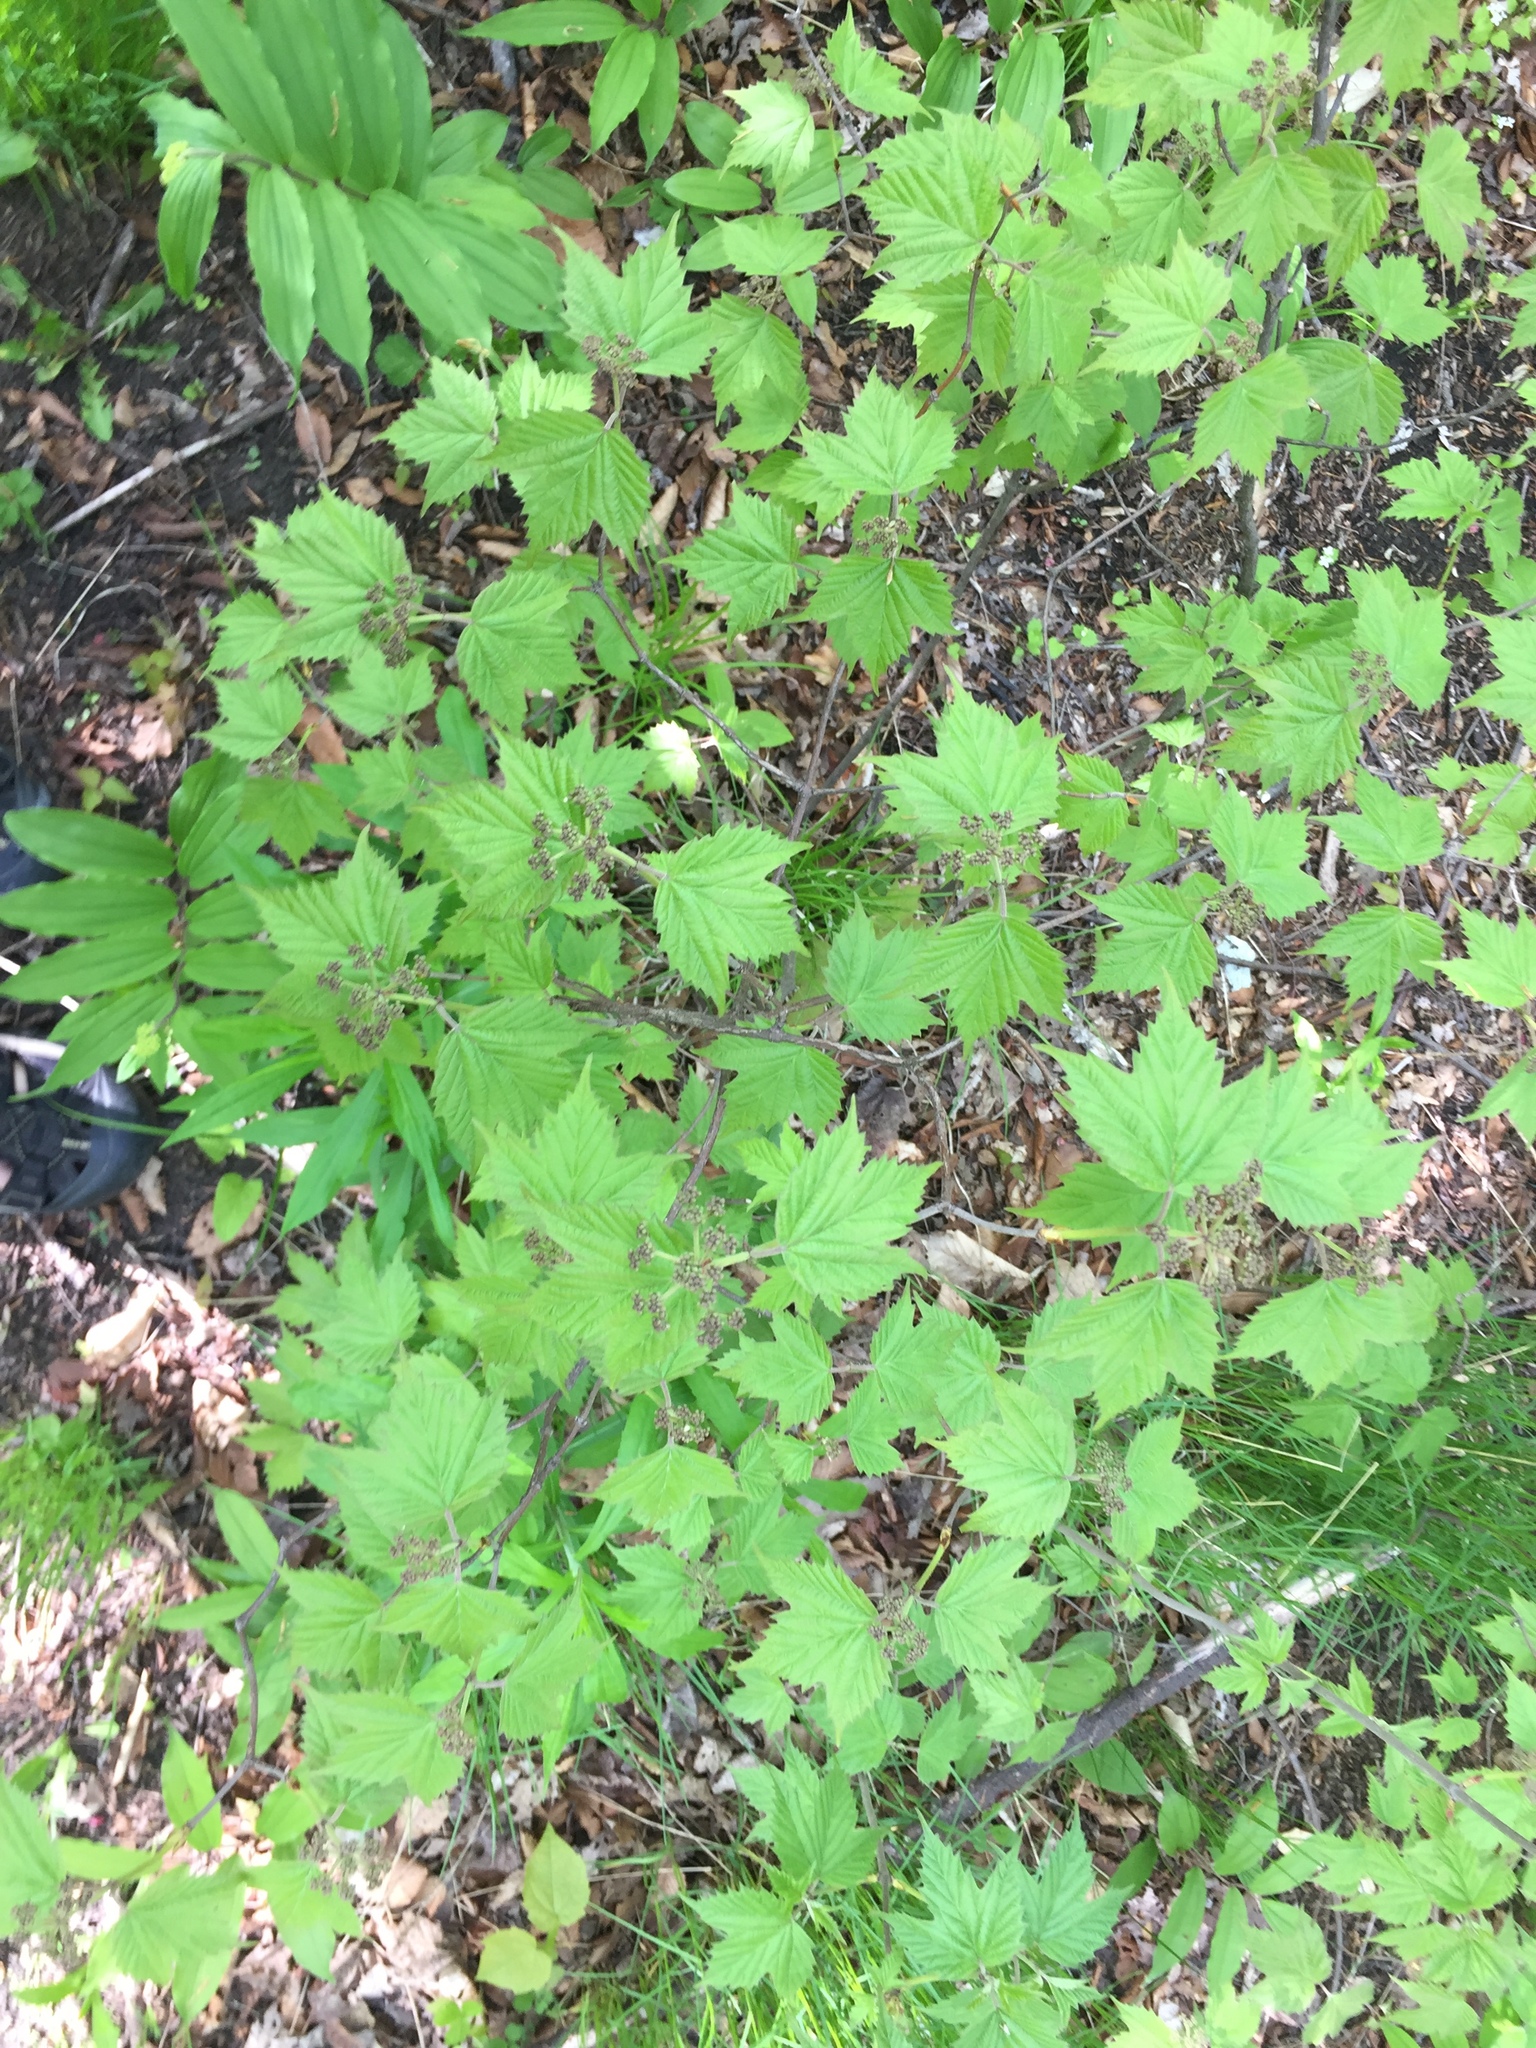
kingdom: Plantae
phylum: Tracheophyta
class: Magnoliopsida
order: Dipsacales
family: Viburnaceae
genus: Viburnum
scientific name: Viburnum acerifolium
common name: Dockmackie
